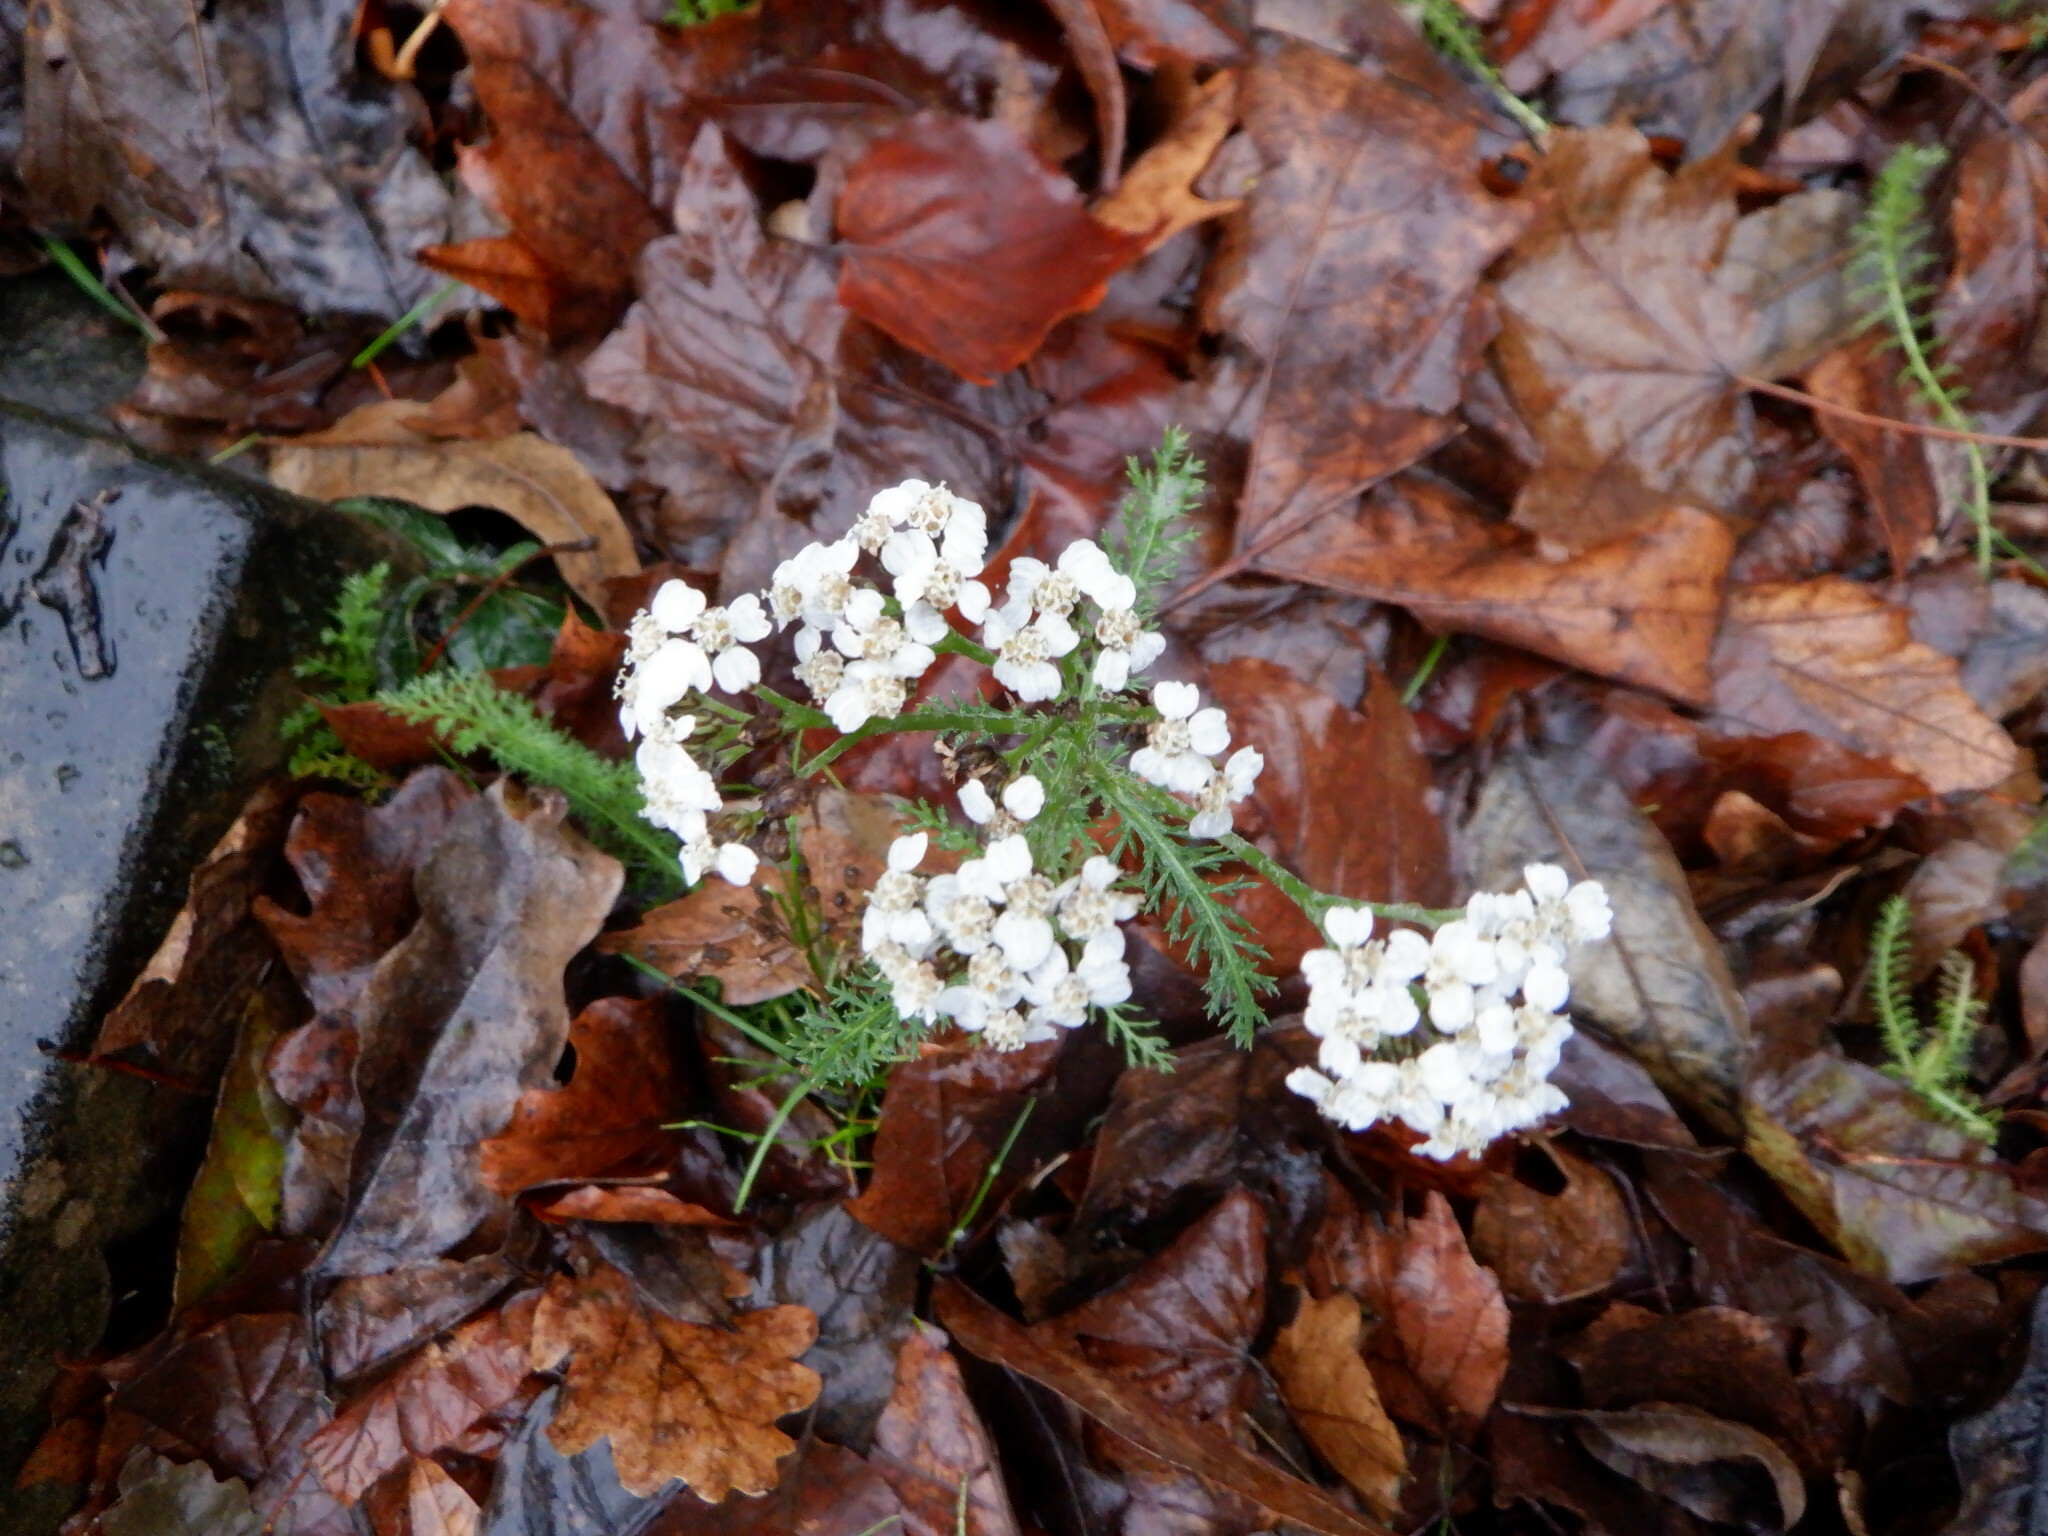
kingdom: Plantae
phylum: Tracheophyta
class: Magnoliopsida
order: Asterales
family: Asteraceae
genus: Achillea
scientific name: Achillea millefolium
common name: Yarrow
